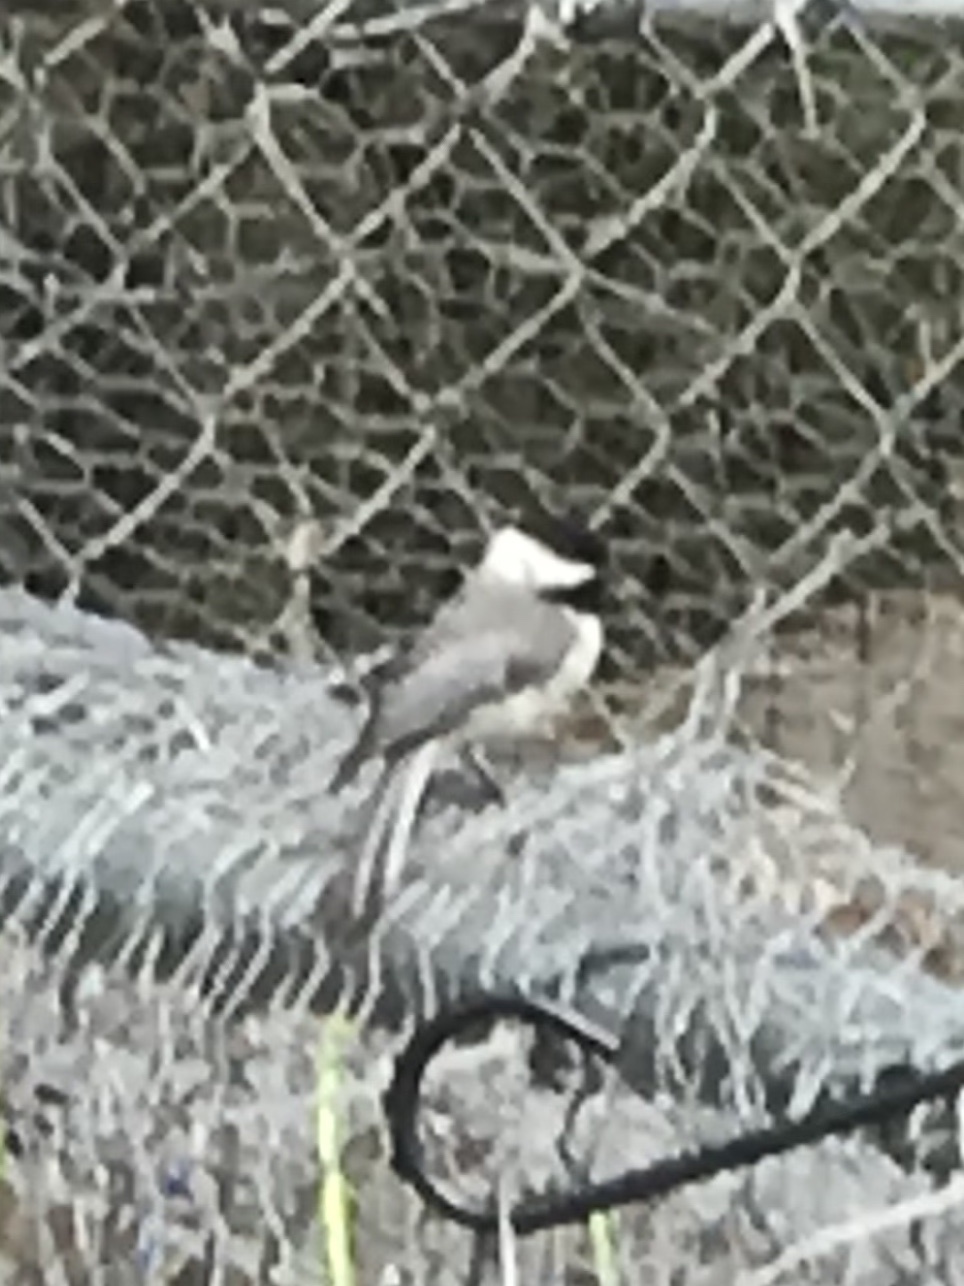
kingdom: Animalia
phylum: Chordata
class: Aves
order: Passeriformes
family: Paridae
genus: Poecile
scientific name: Poecile carolinensis
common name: Carolina chickadee
